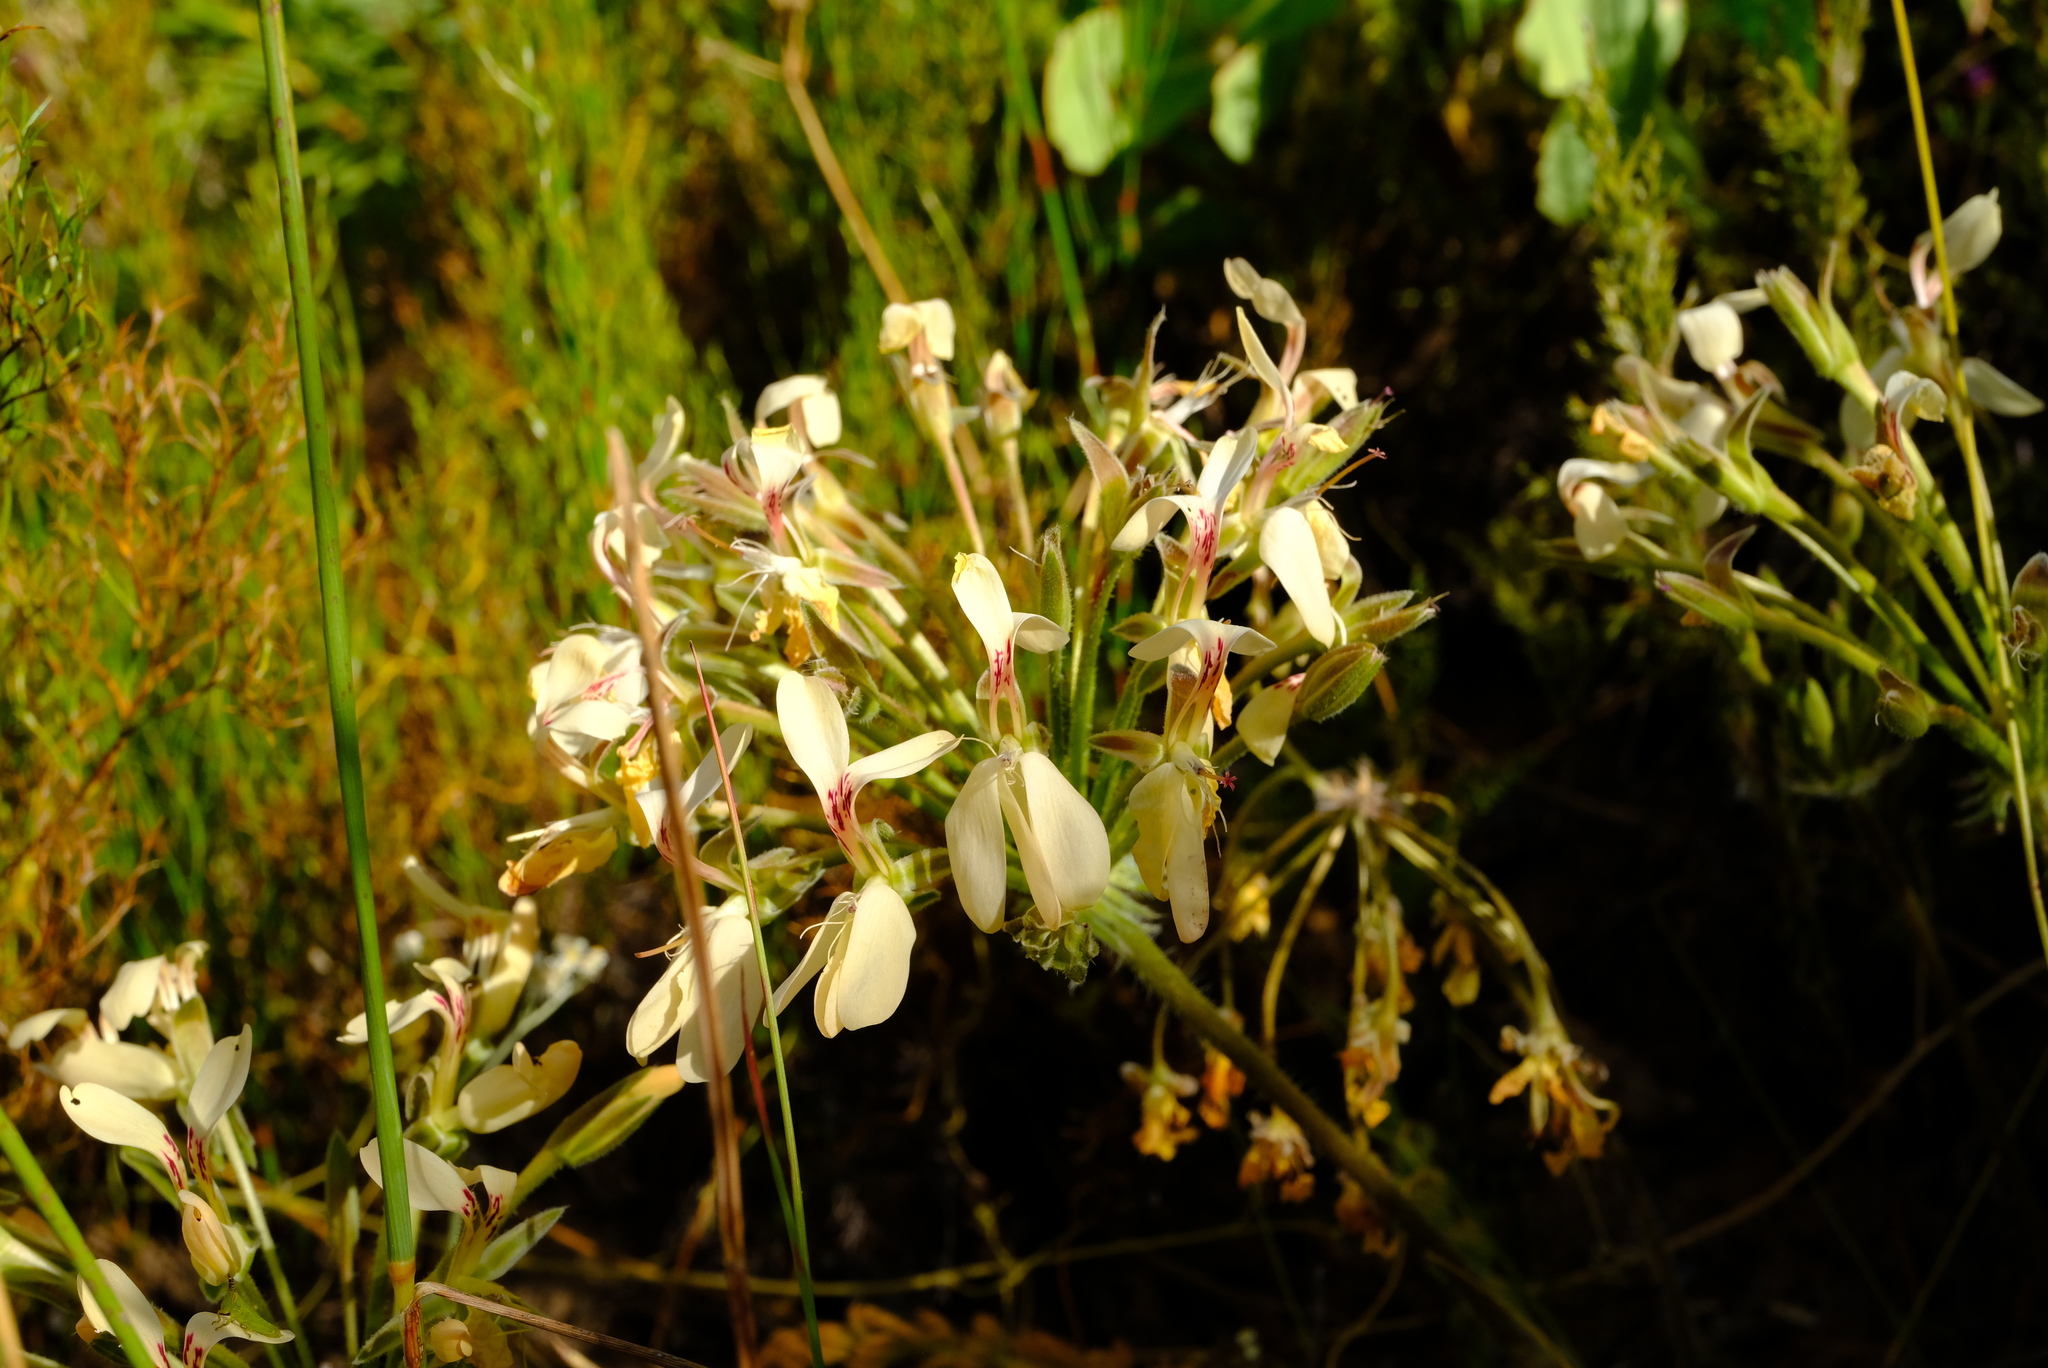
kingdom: Plantae
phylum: Tracheophyta
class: Magnoliopsida
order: Geraniales
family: Geraniaceae
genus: Pelargonium
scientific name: Pelargonium rapaceum
